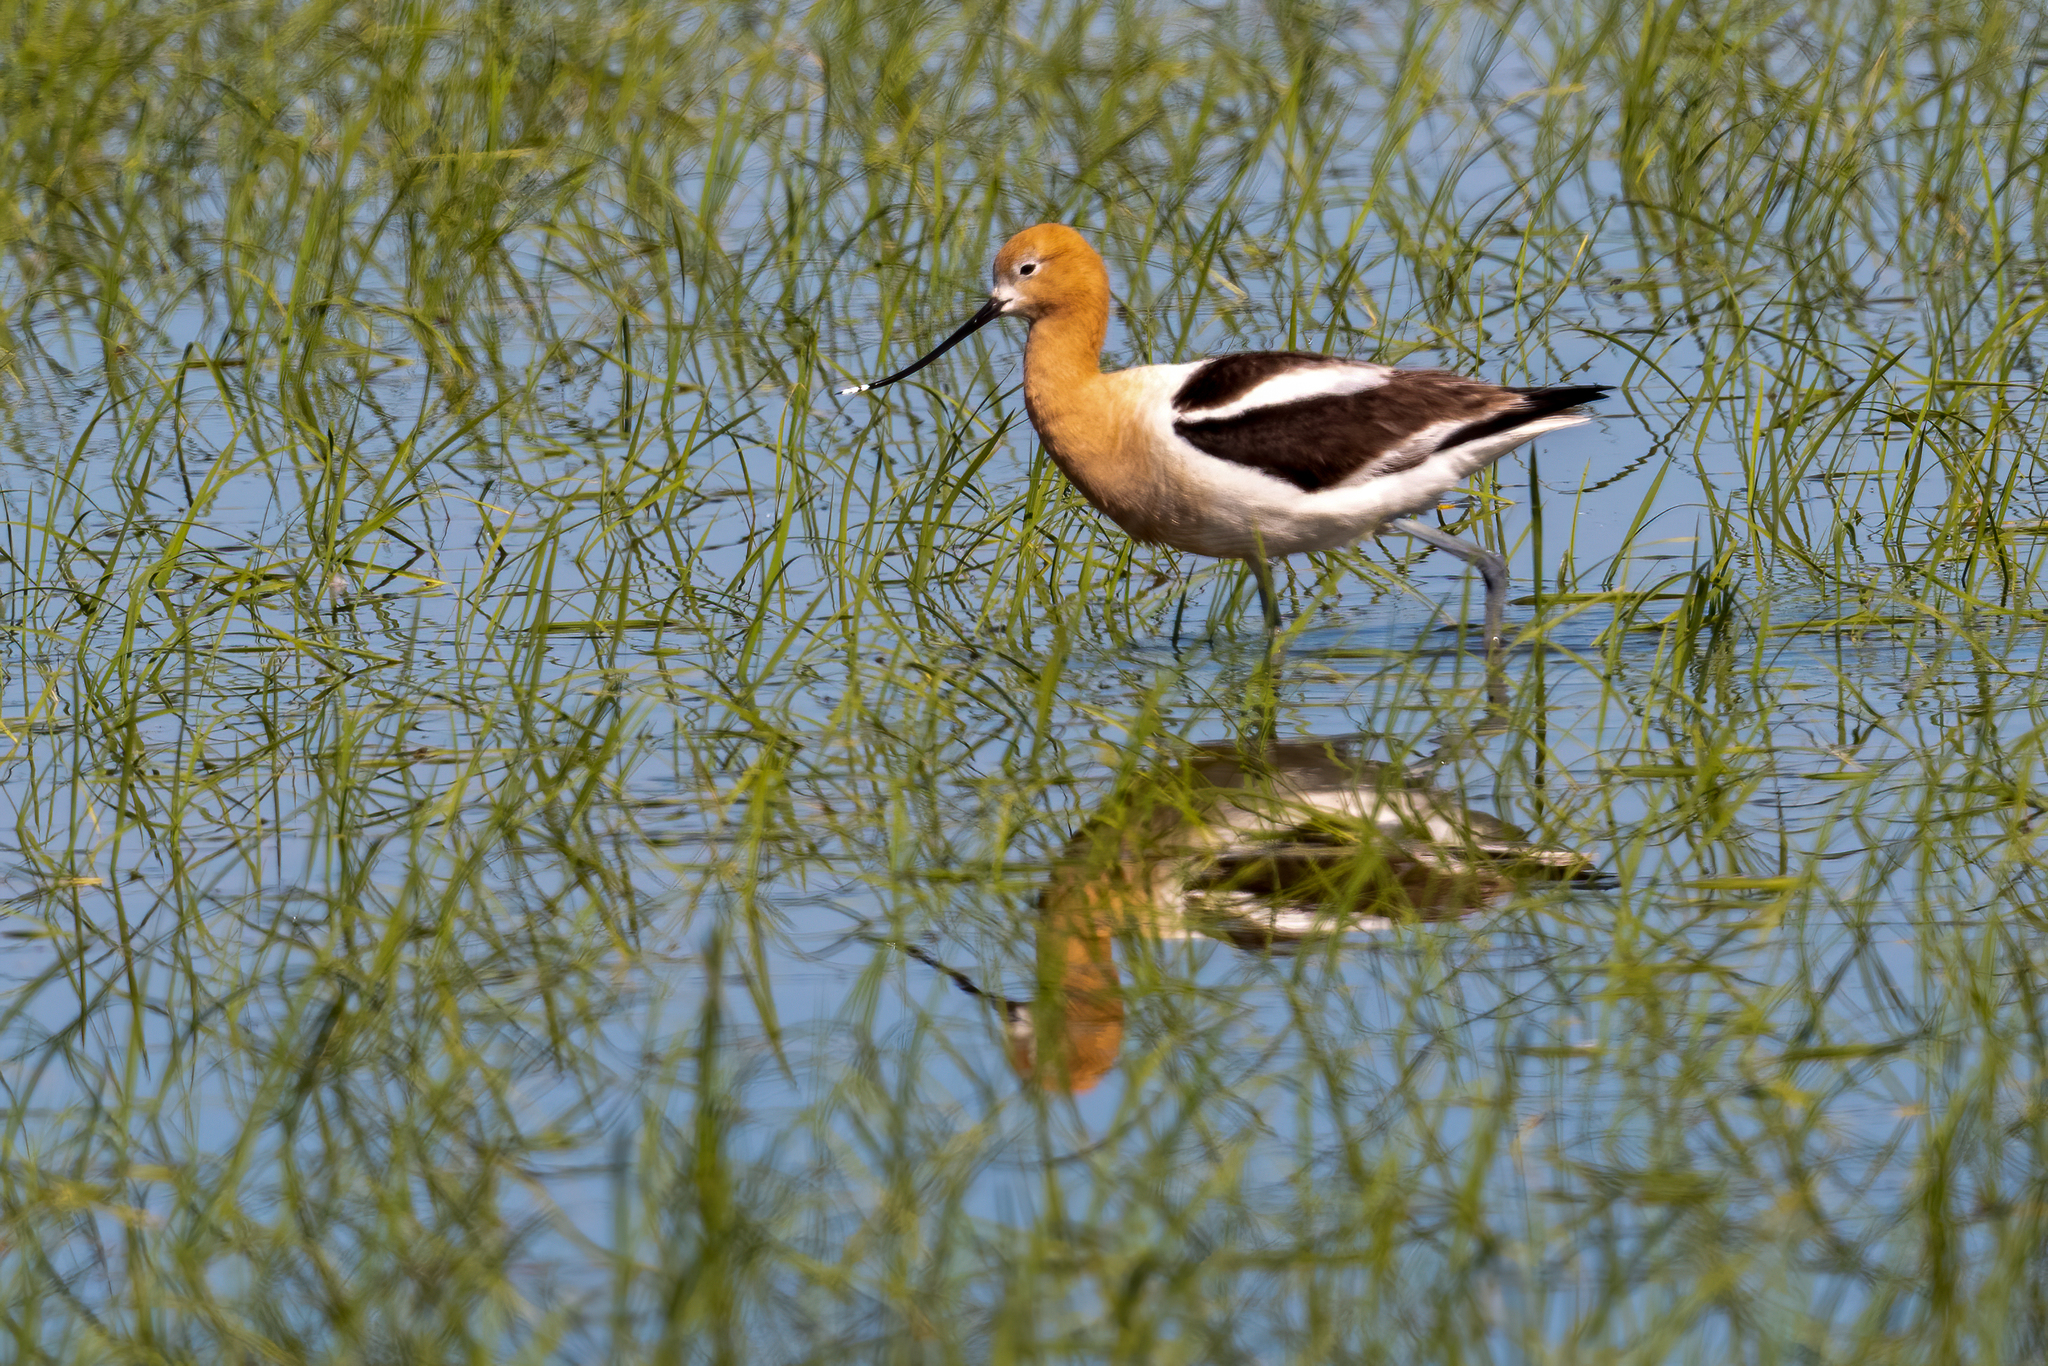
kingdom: Animalia
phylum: Chordata
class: Aves
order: Charadriiformes
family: Recurvirostridae
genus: Recurvirostra
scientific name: Recurvirostra americana
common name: American avocet
